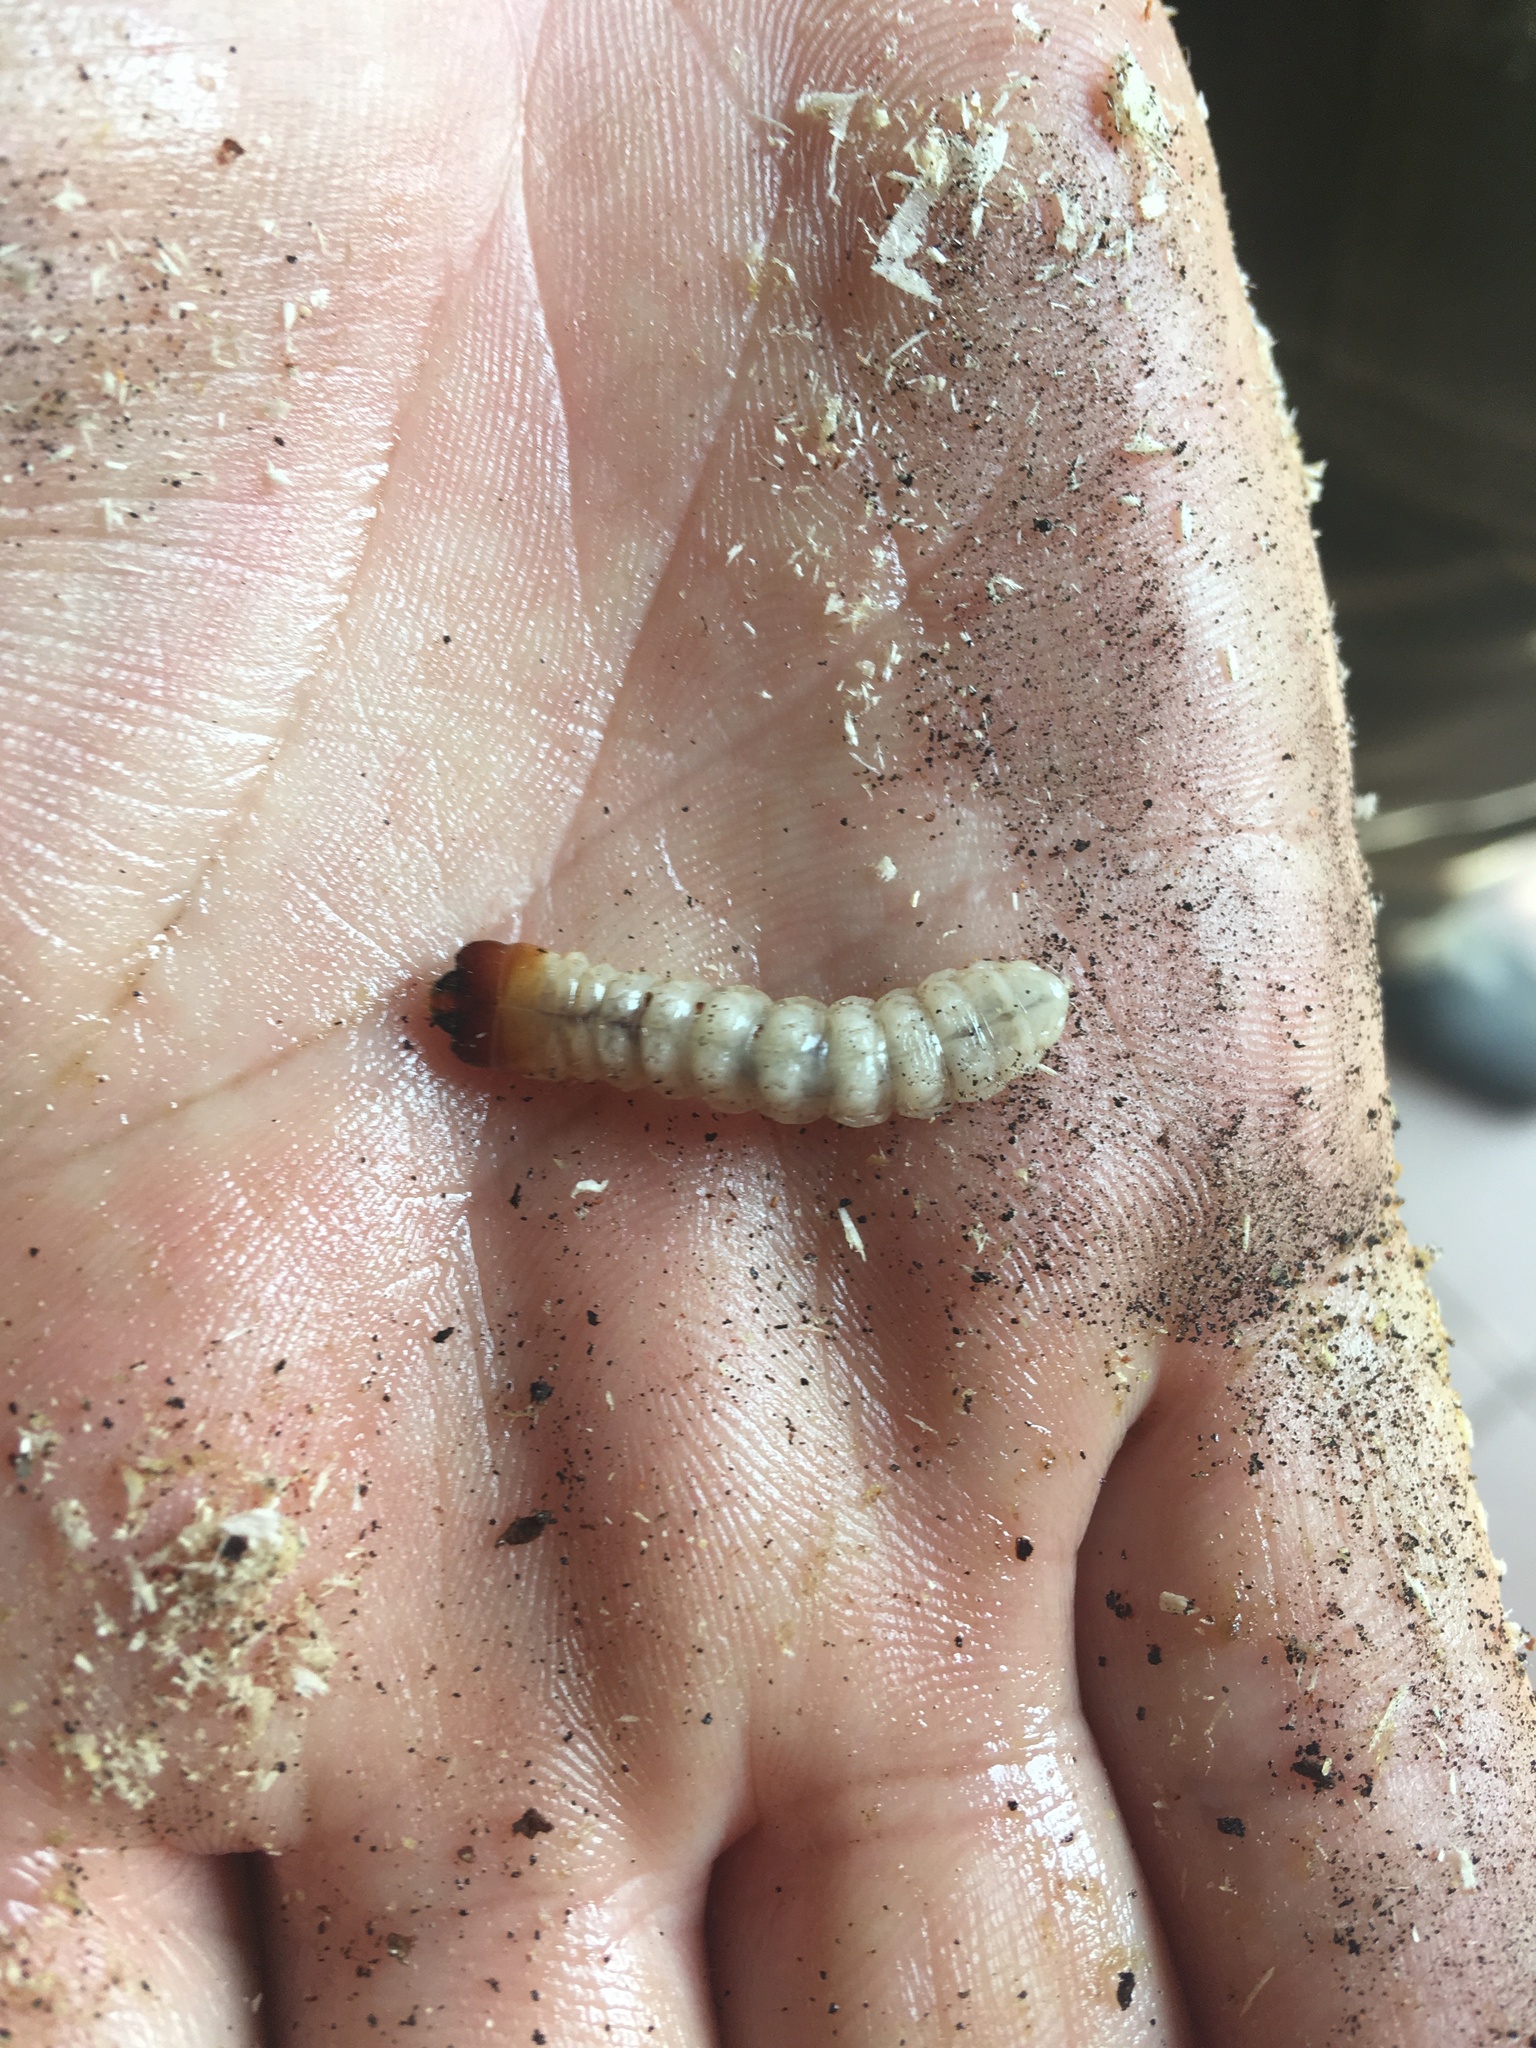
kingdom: Animalia
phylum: Arthropoda
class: Insecta
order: Coleoptera
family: Cerambycidae
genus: Rhagium
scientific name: Rhagium inquisitor
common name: Ribbed pine borer
